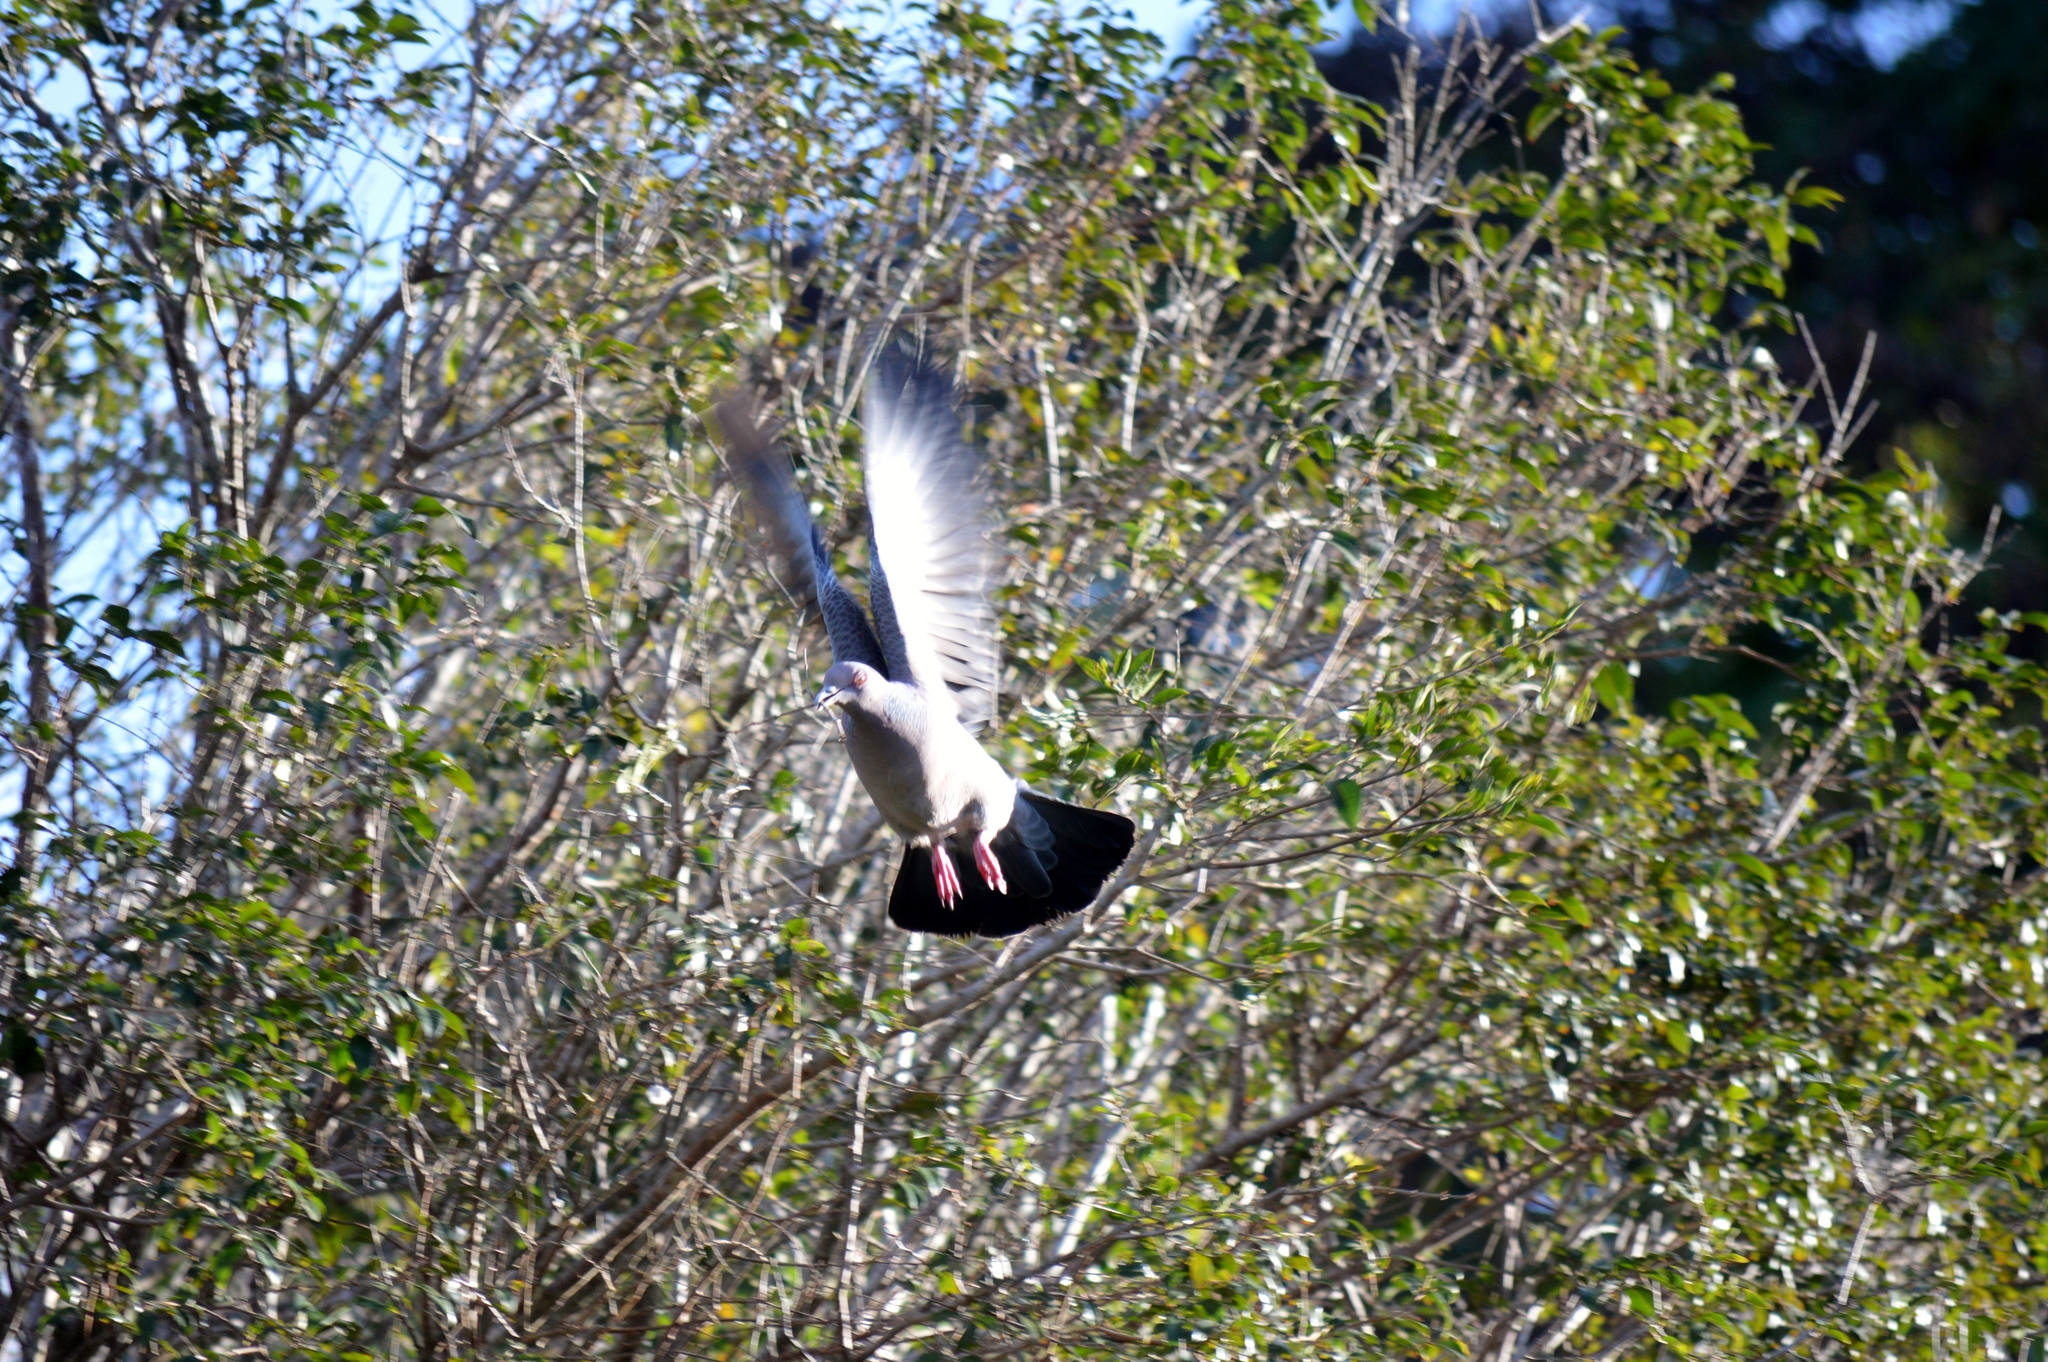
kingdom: Animalia
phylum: Chordata
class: Aves
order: Columbiformes
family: Columbidae
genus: Patagioenas
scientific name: Patagioenas picazuro
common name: Picazuro pigeon
